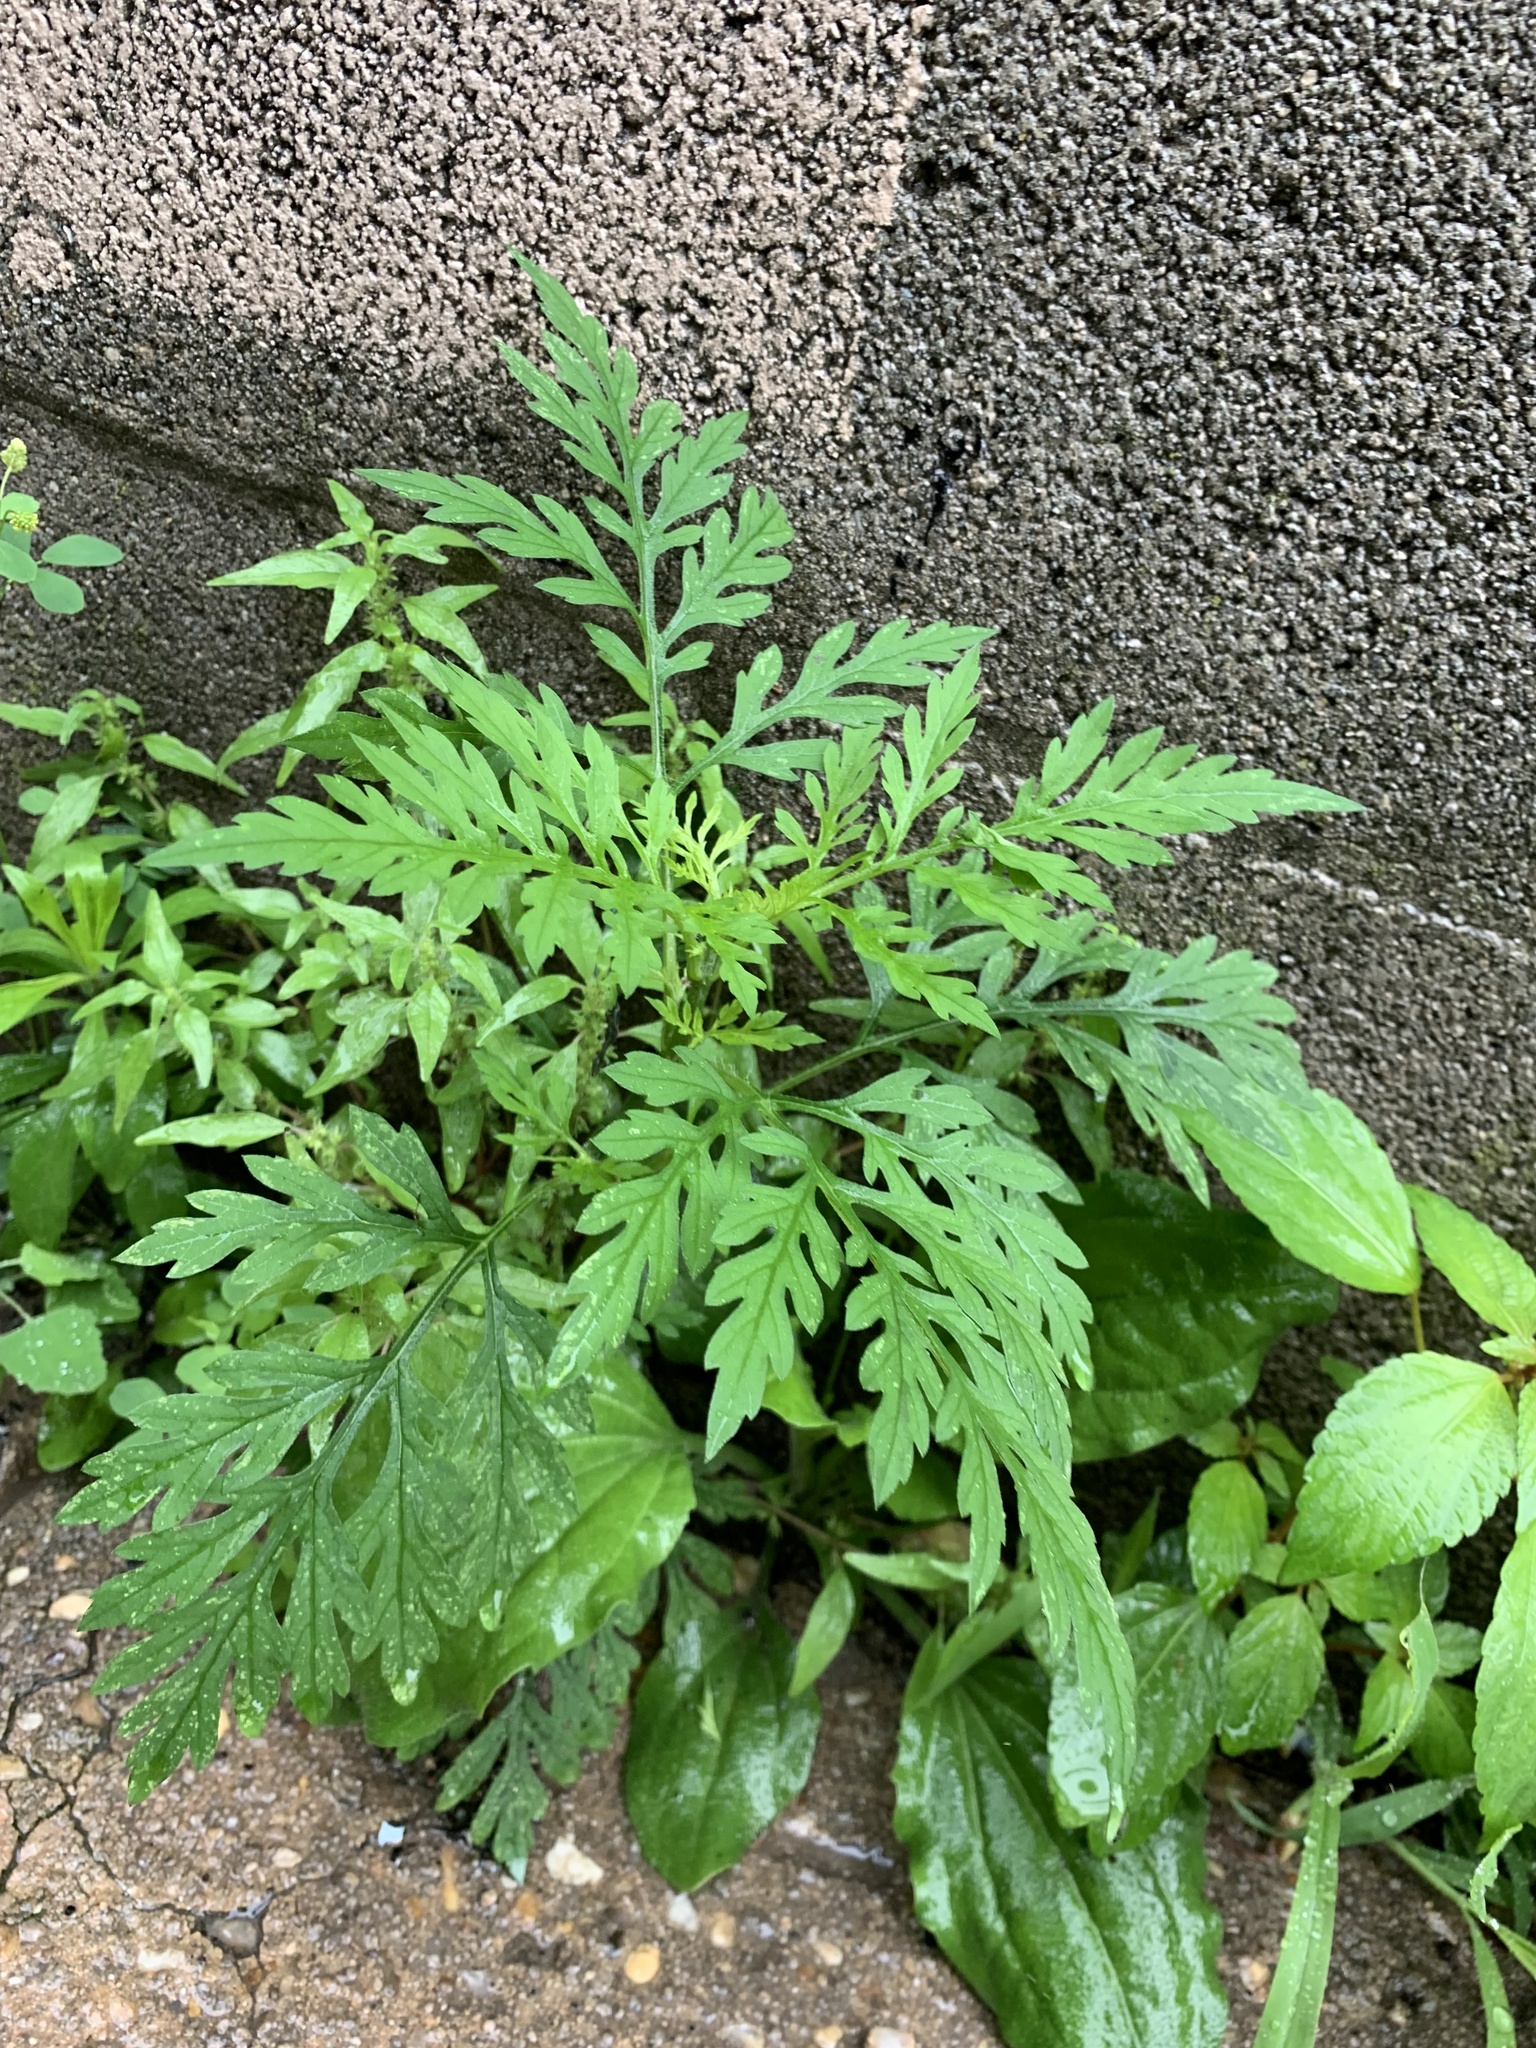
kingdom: Plantae
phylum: Tracheophyta
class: Magnoliopsida
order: Asterales
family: Asteraceae
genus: Ambrosia
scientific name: Ambrosia artemisiifolia
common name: Annual ragweed
